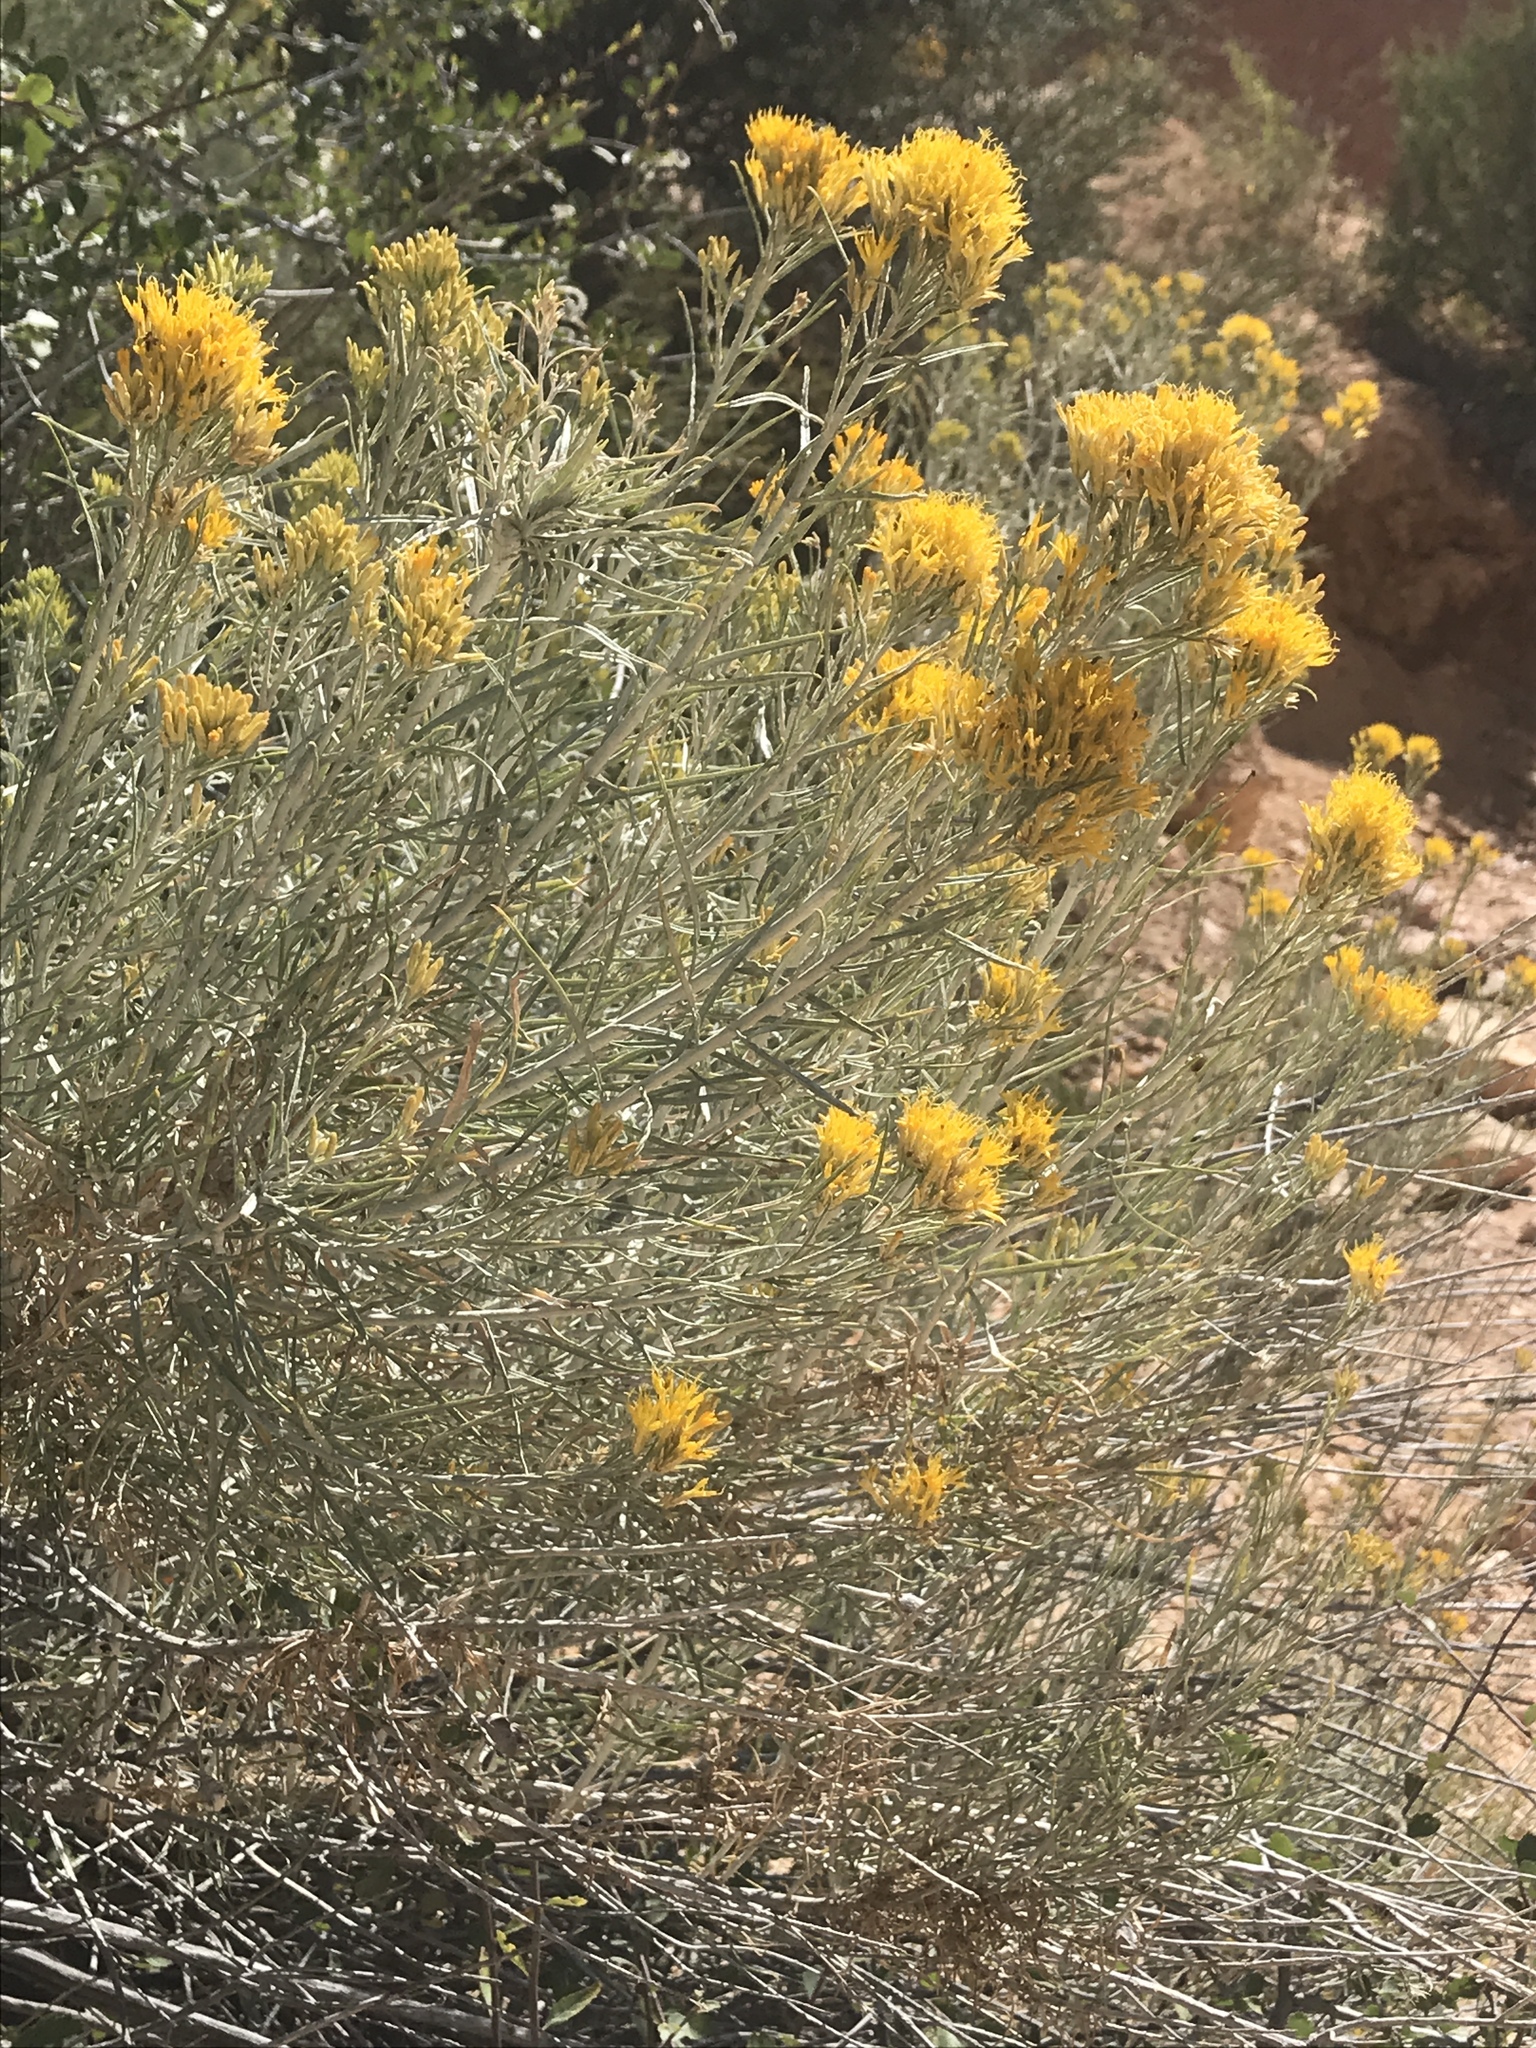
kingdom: Plantae
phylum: Tracheophyta
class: Magnoliopsida
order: Asterales
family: Asteraceae
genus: Ericameria
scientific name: Ericameria nauseosa
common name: Rubber rabbitbrush
